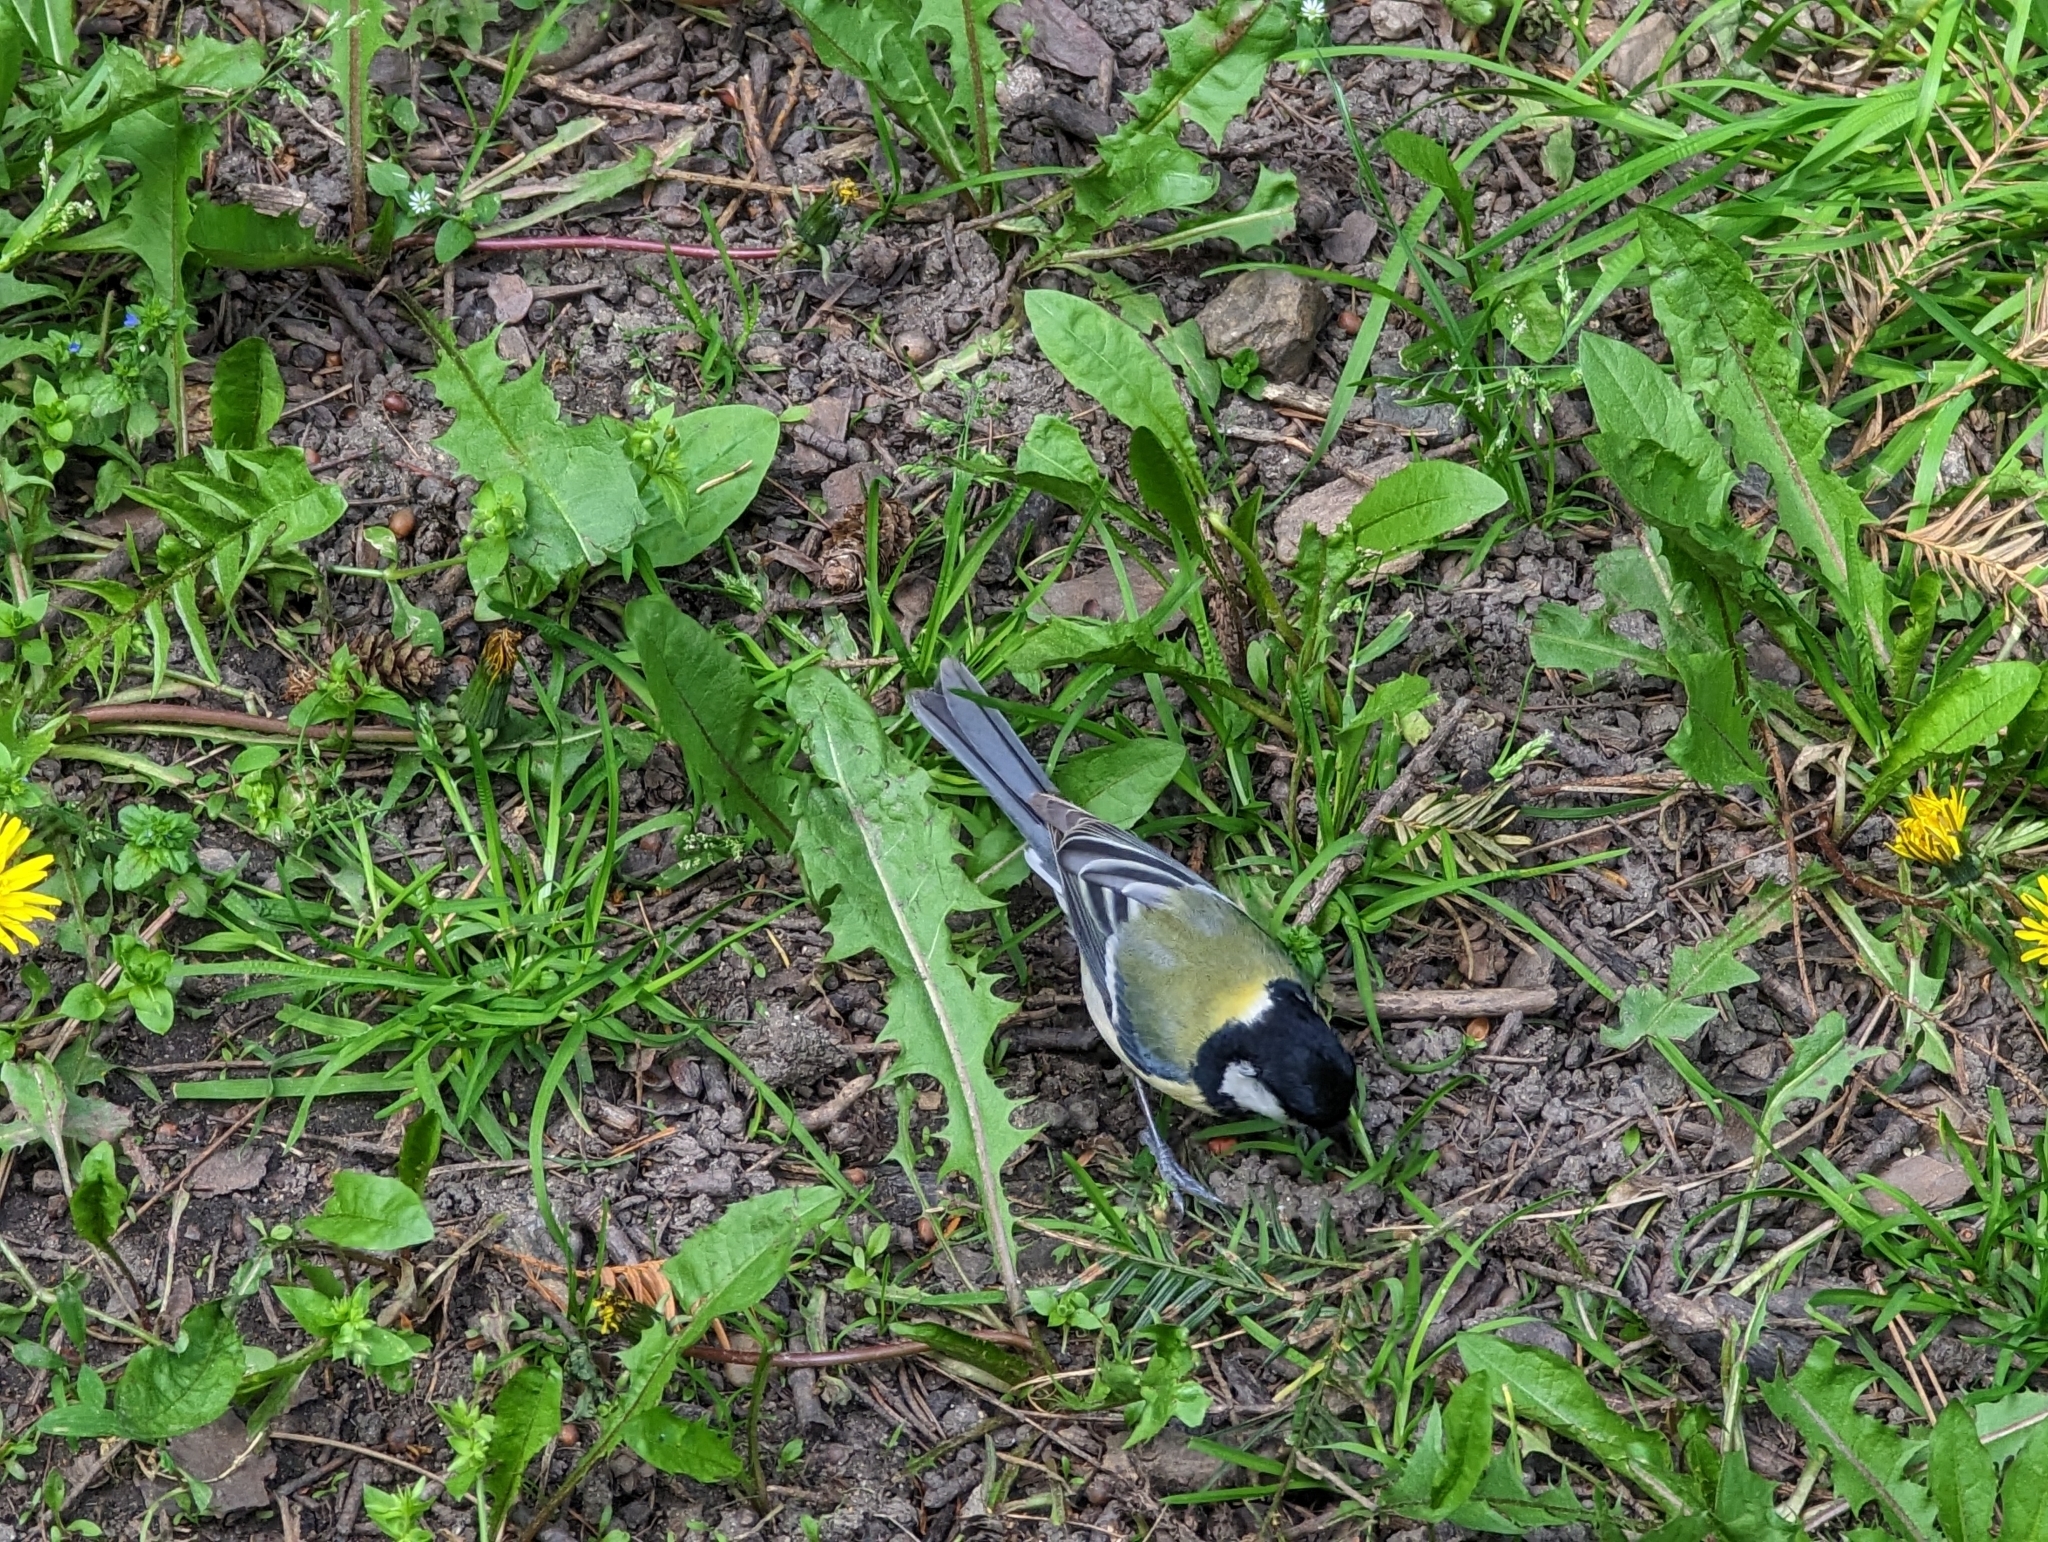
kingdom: Animalia
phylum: Chordata
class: Aves
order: Passeriformes
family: Paridae
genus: Parus
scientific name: Parus major
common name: Great tit
